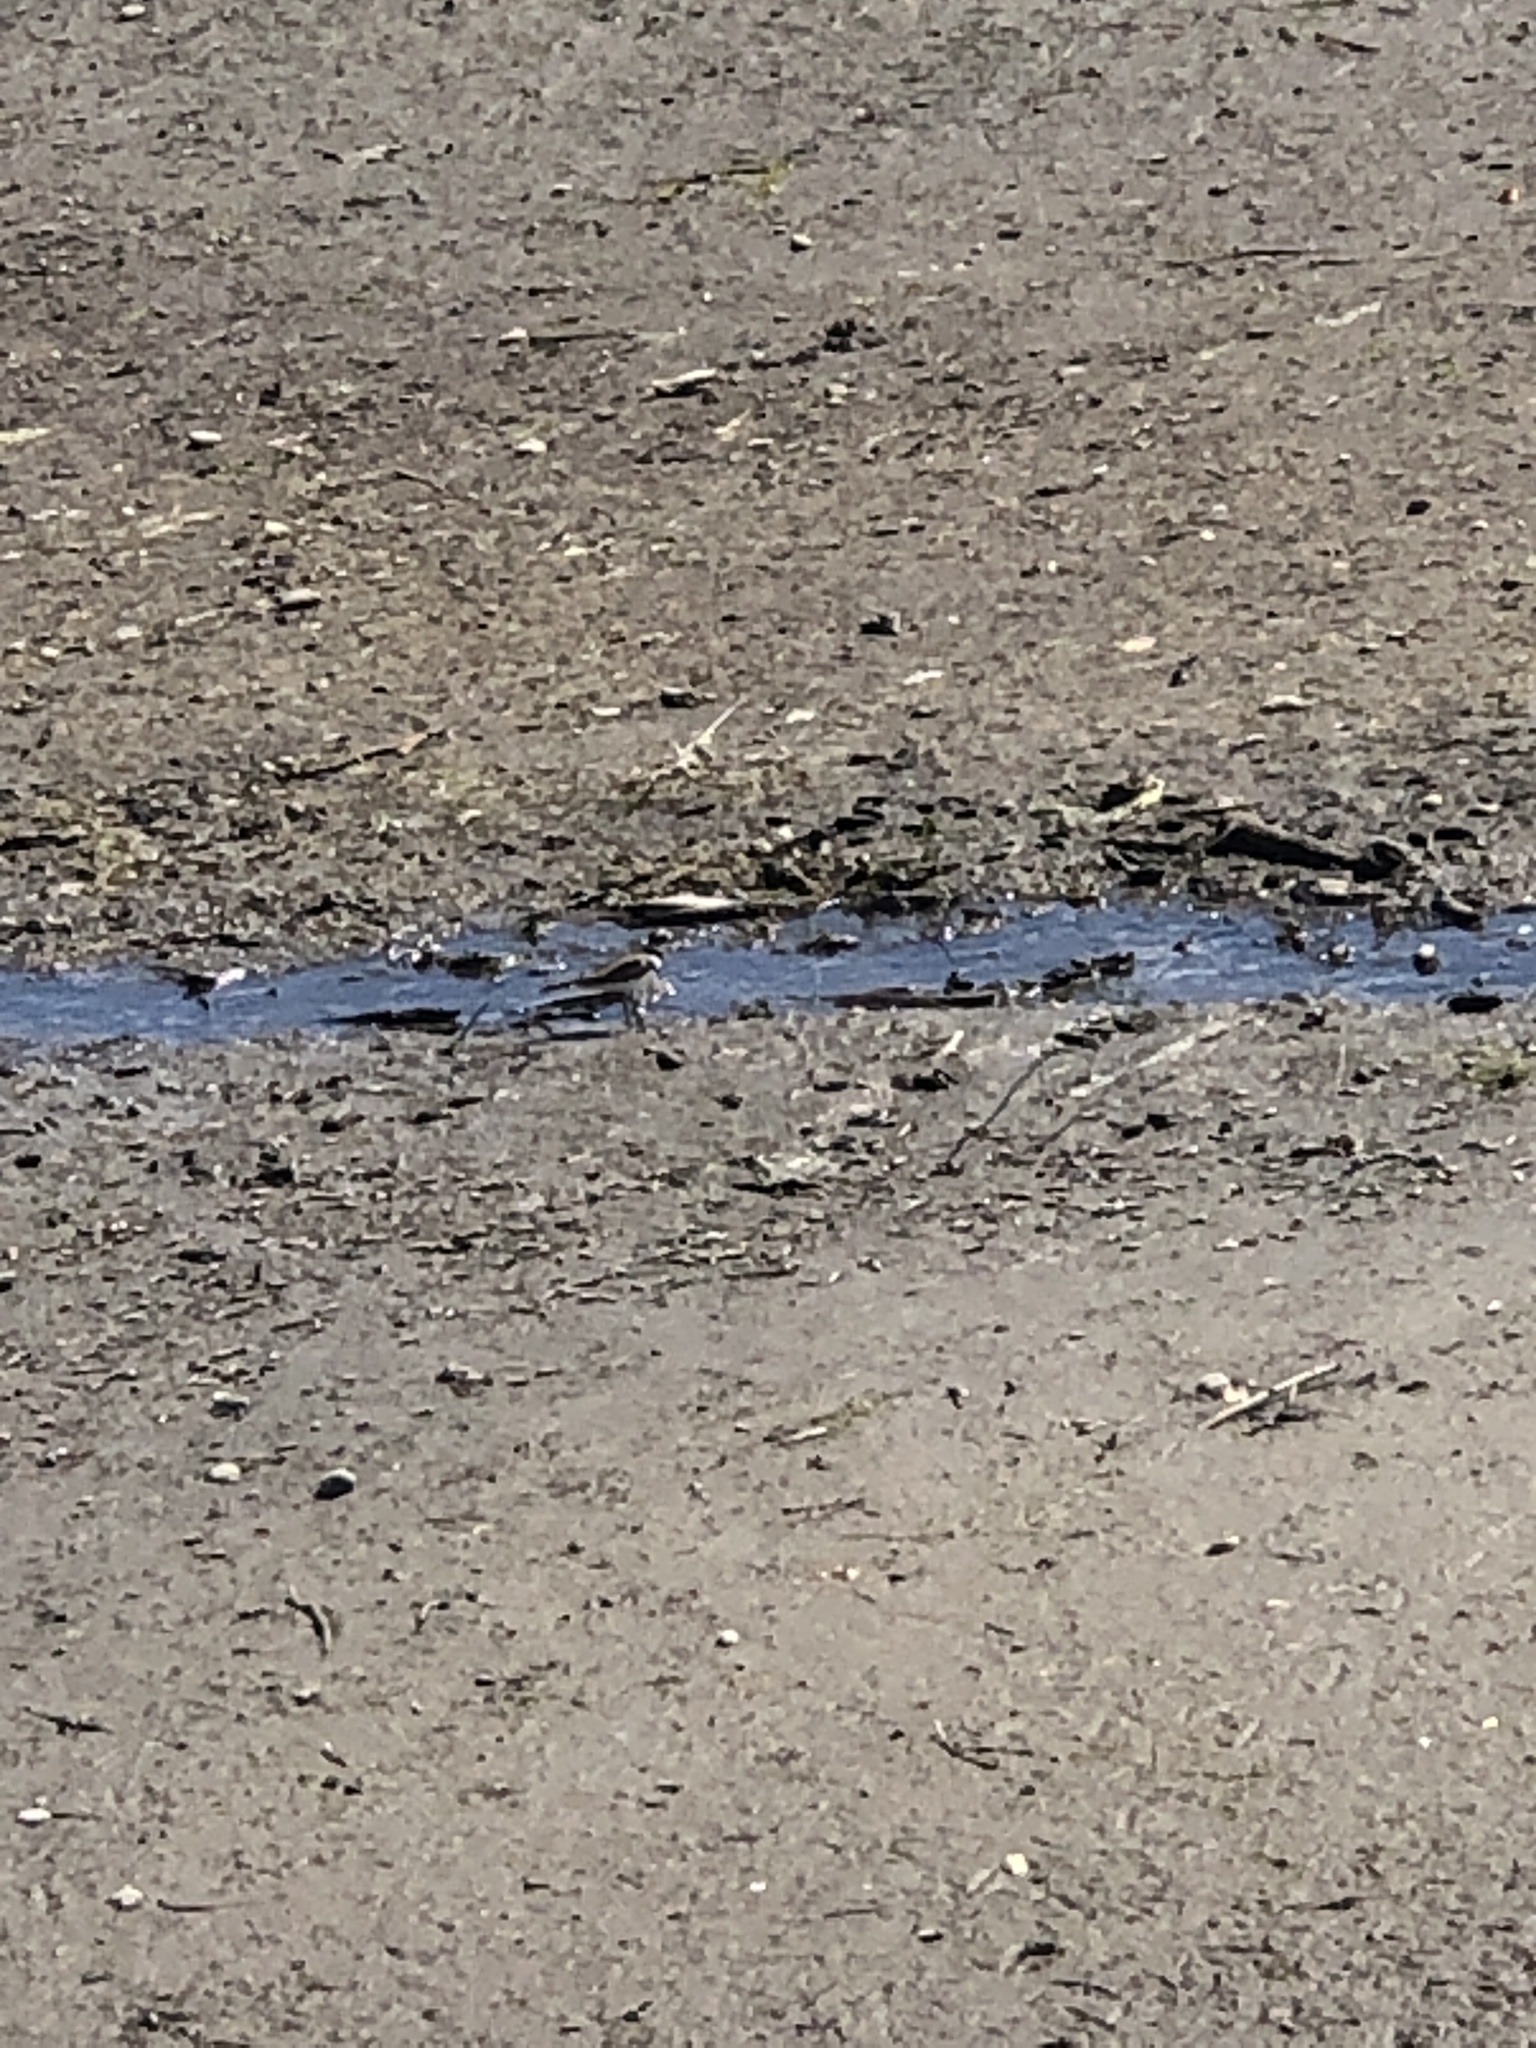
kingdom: Animalia
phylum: Chordata
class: Aves
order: Charadriiformes
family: Charadriidae
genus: Charadrius
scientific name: Charadrius vociferus
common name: Killdeer
